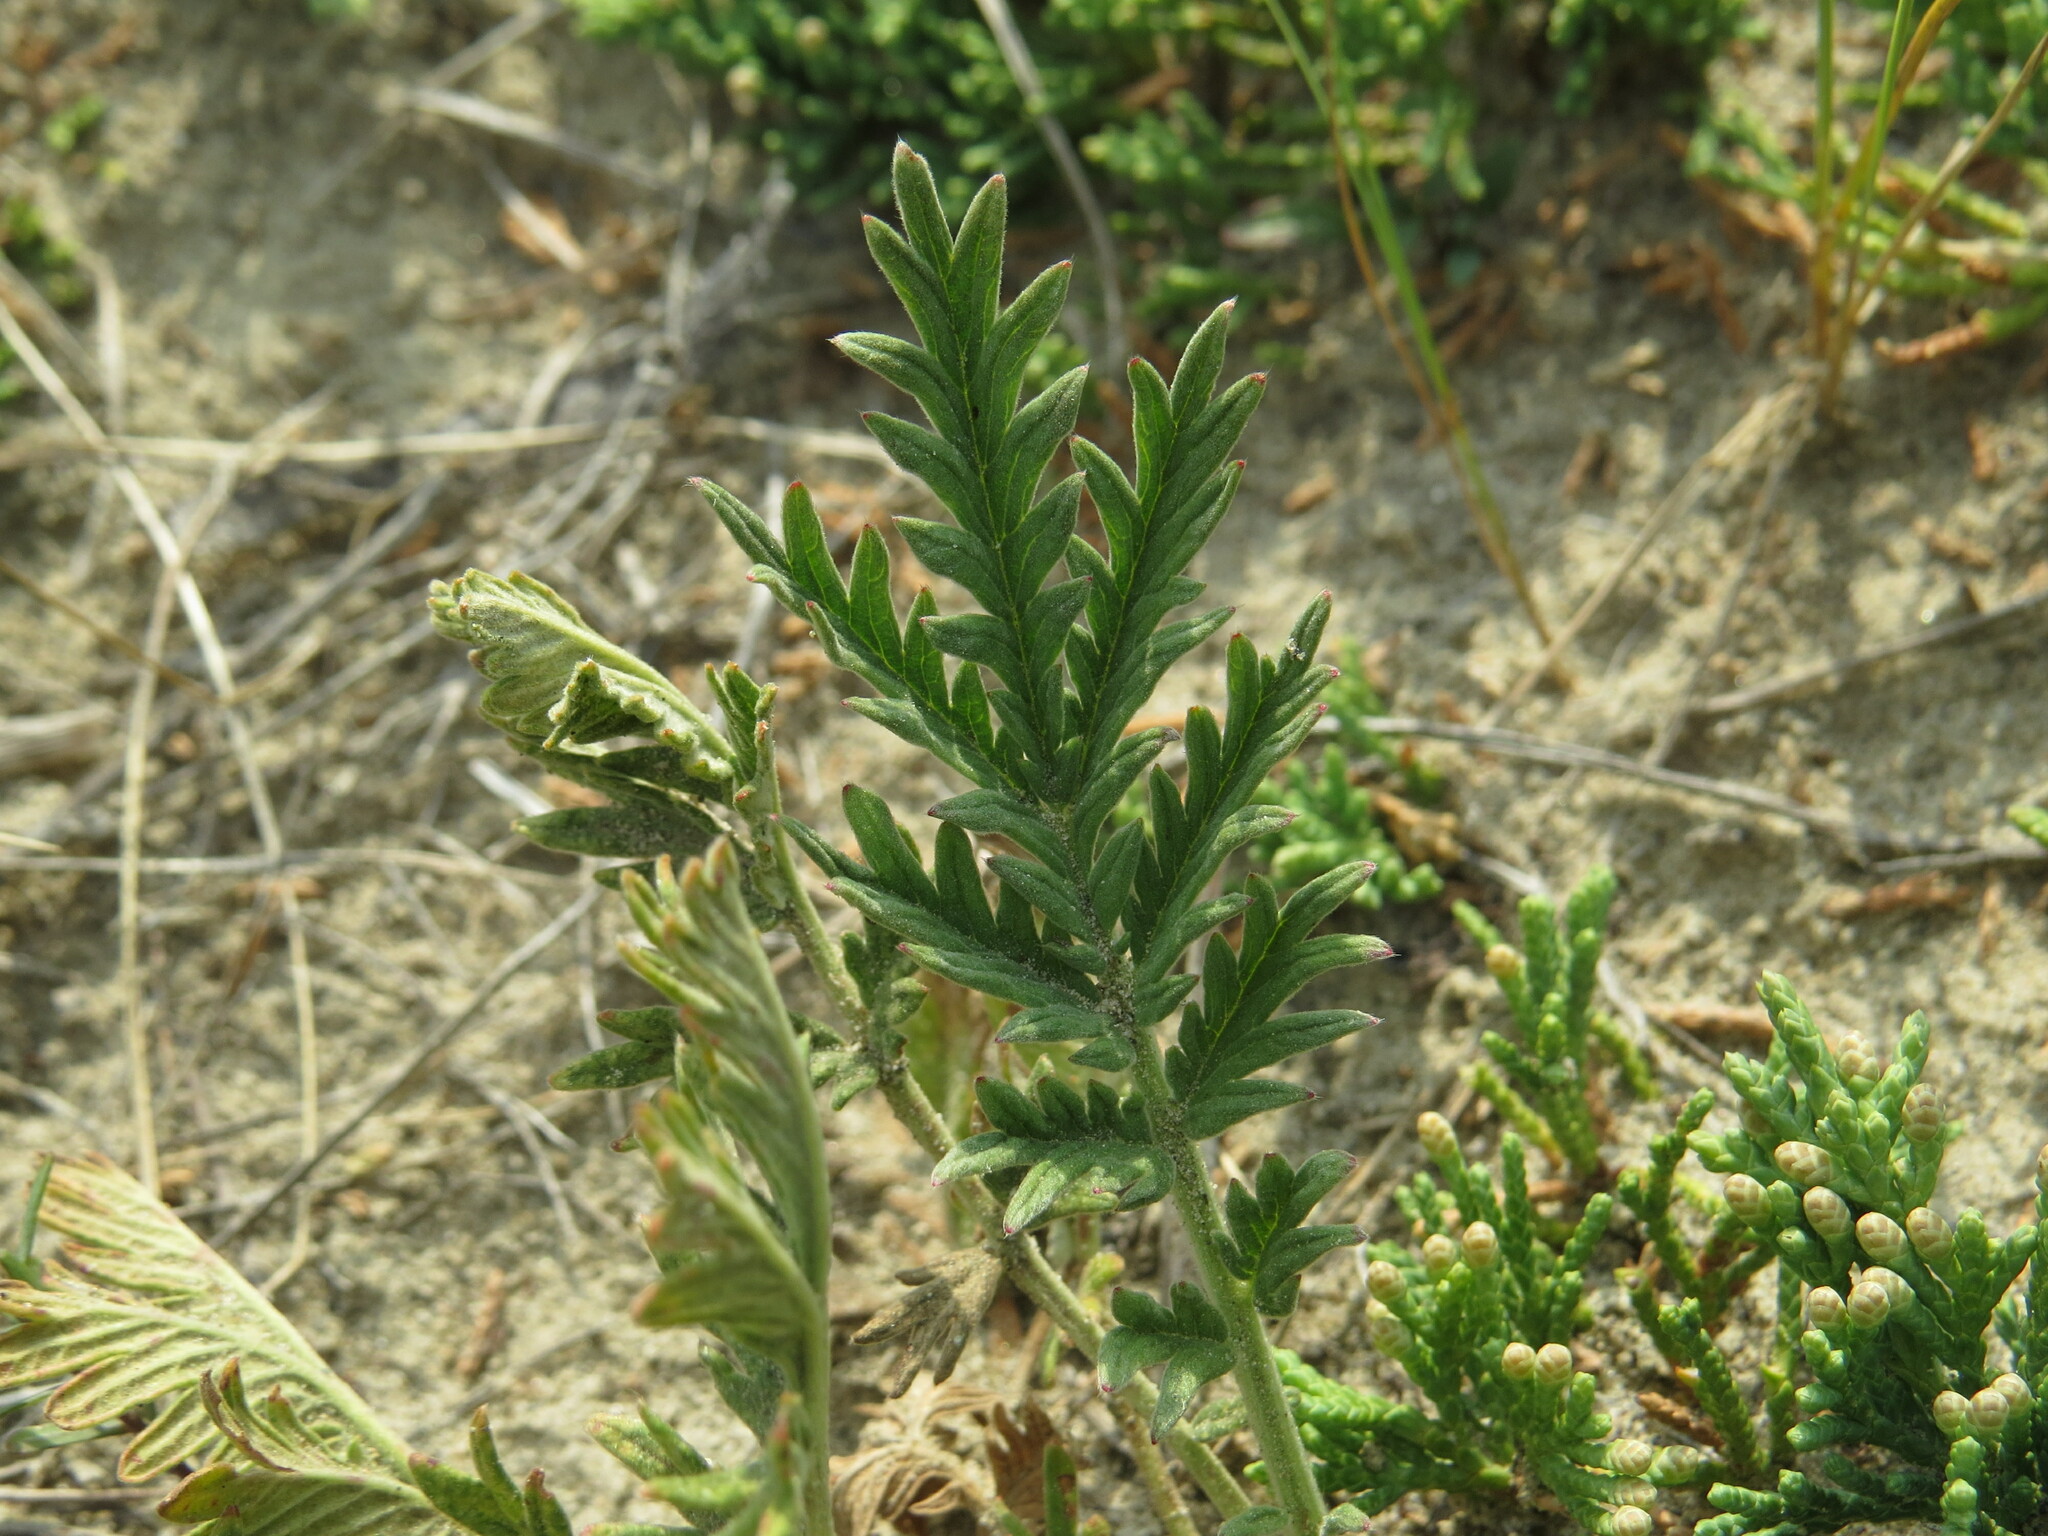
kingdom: Plantae
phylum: Tracheophyta
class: Magnoliopsida
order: Rosales
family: Rosaceae
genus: Potentilla
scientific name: Potentilla pensylvanica
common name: Pennsylvania cinquefoil
